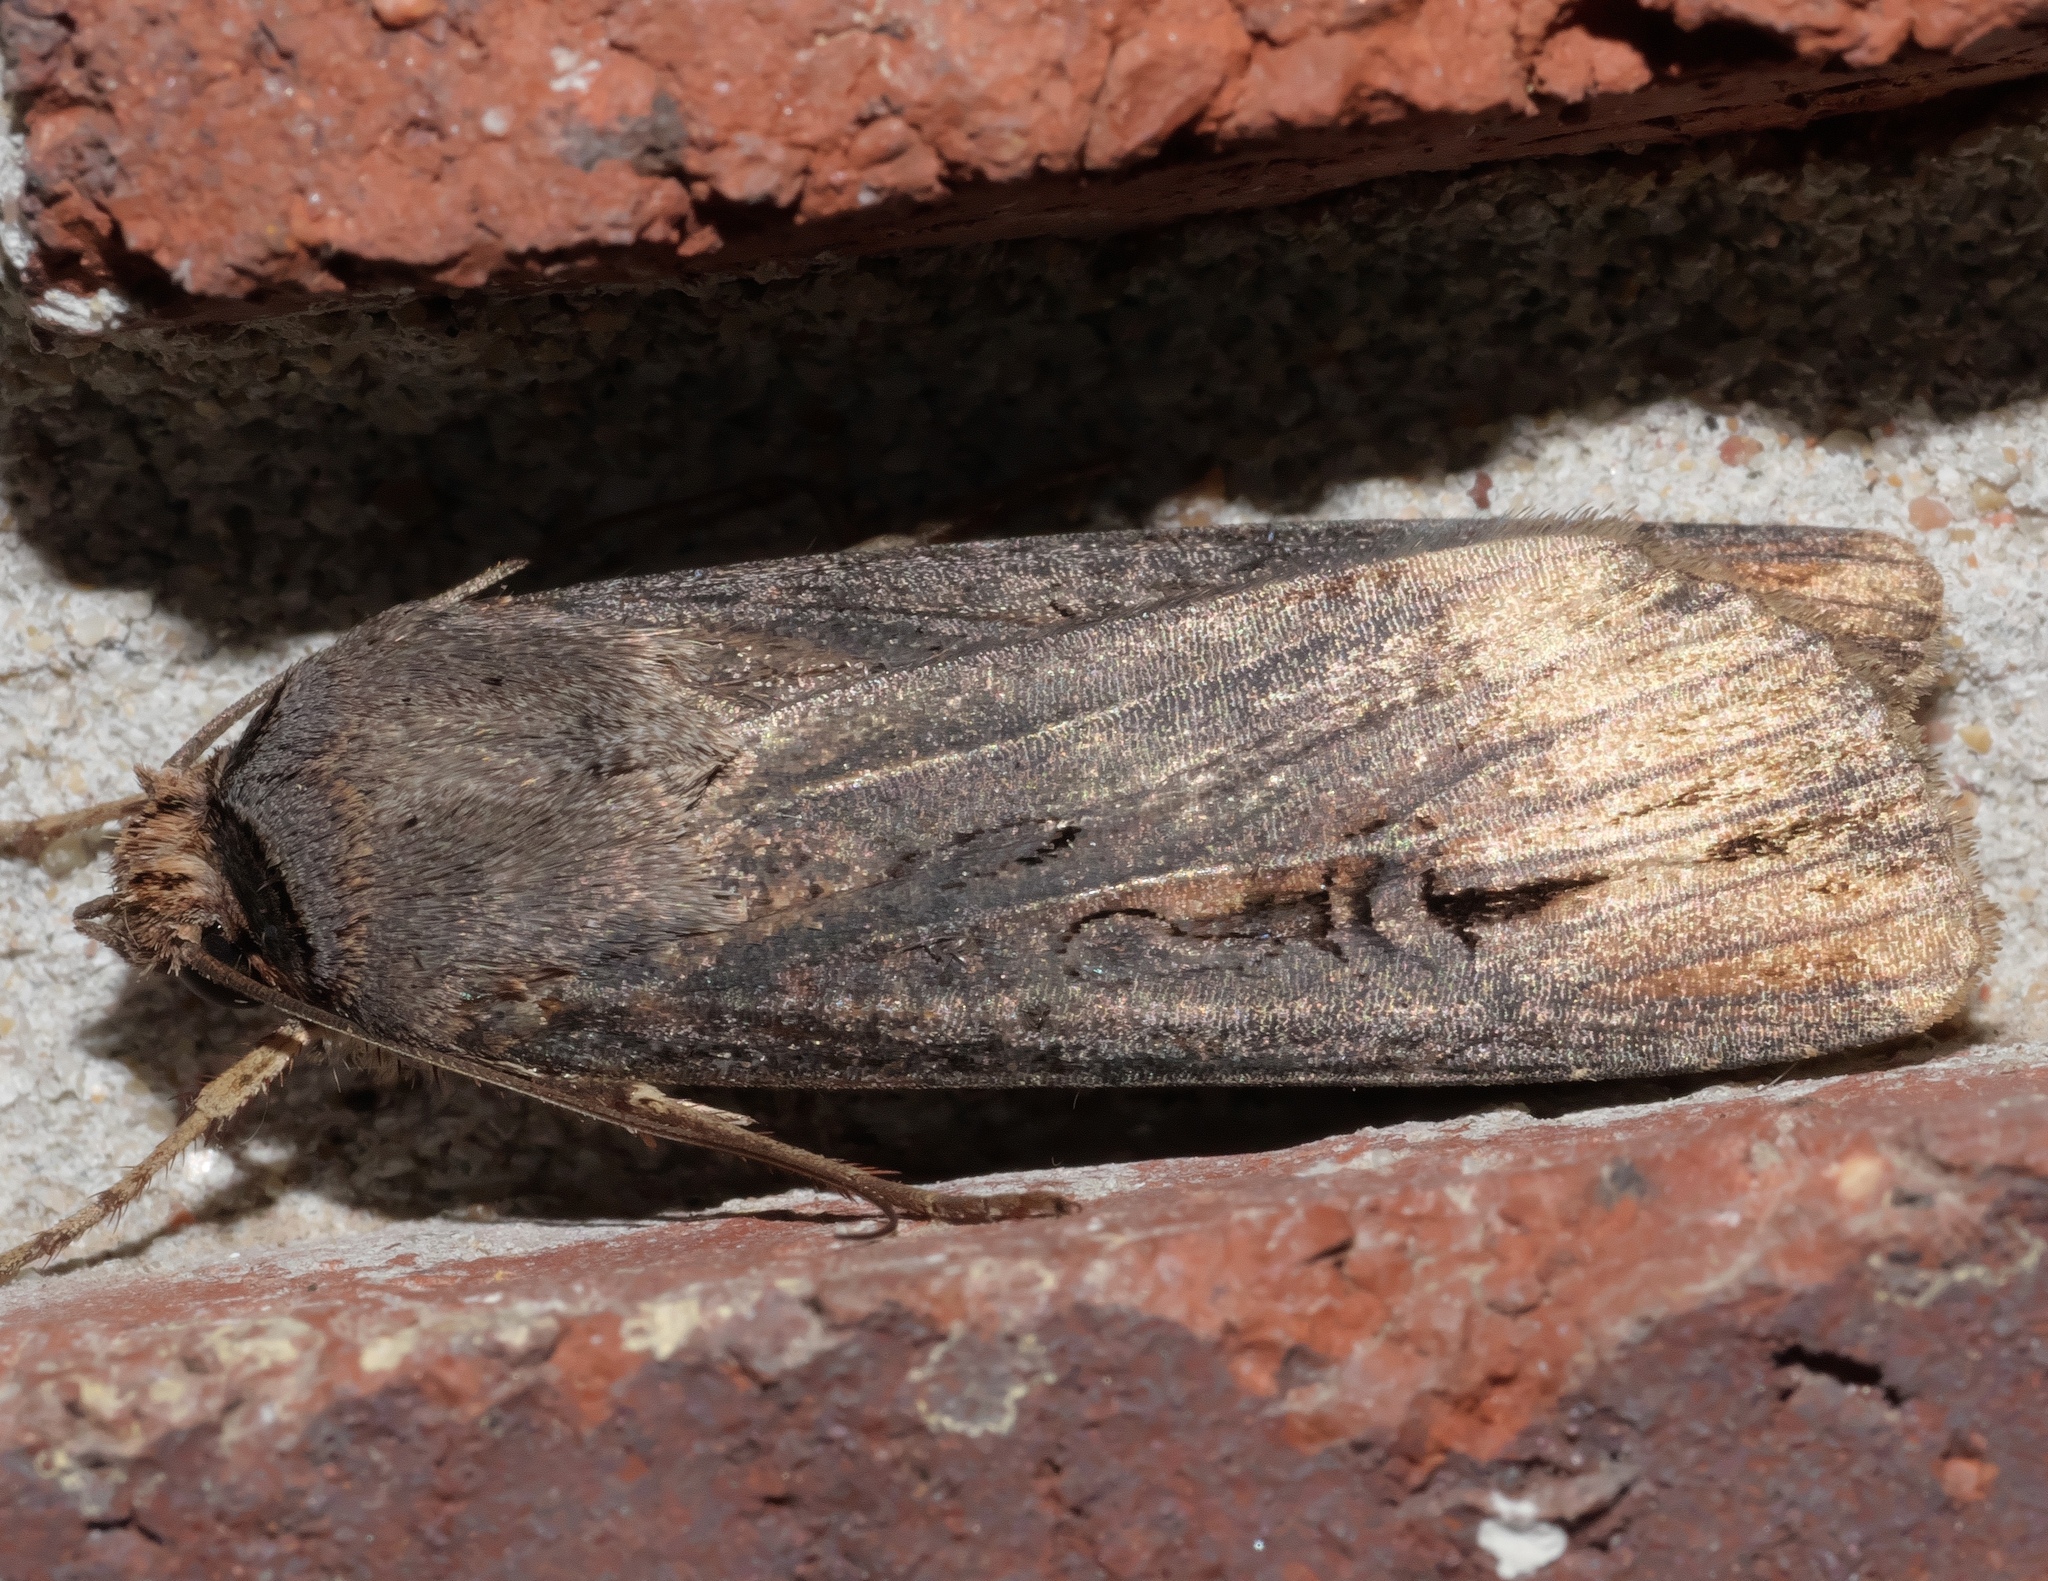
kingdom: Animalia
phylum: Arthropoda
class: Insecta
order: Lepidoptera
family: Noctuidae
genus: Agrotis
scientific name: Agrotis ipsilon
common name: Dark sword-grass
